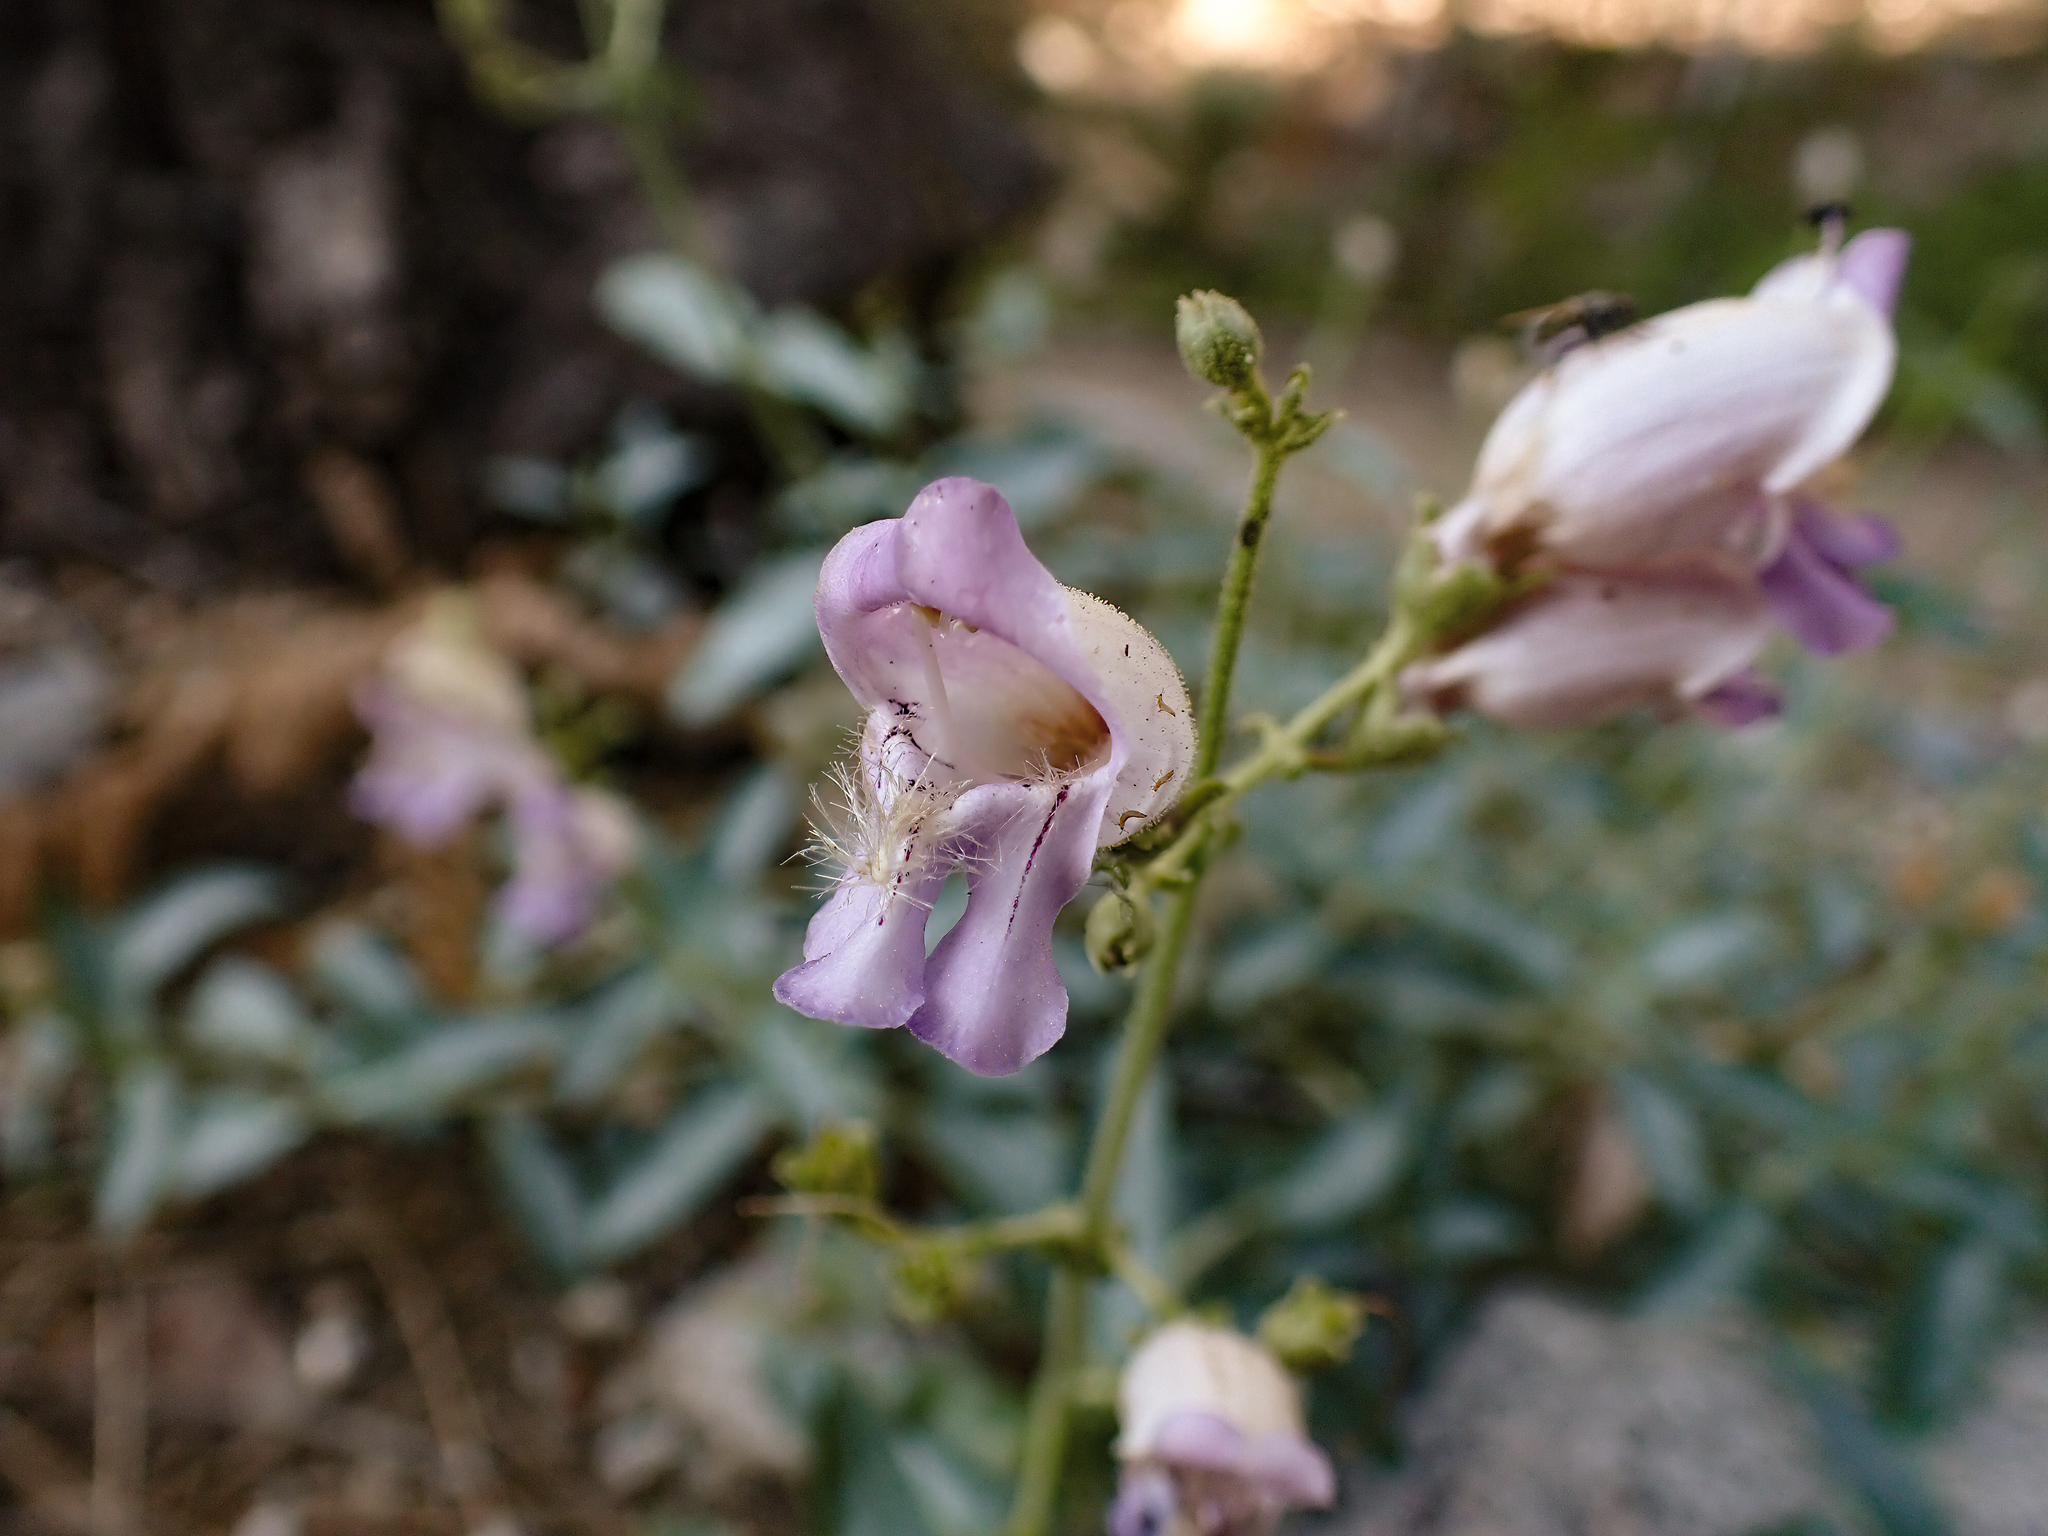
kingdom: Plantae
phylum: Tracheophyta
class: Magnoliopsida
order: Lamiales
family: Plantaginaceae
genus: Penstemon
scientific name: Penstemon grinnellii
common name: Grinnell's beardtongue
